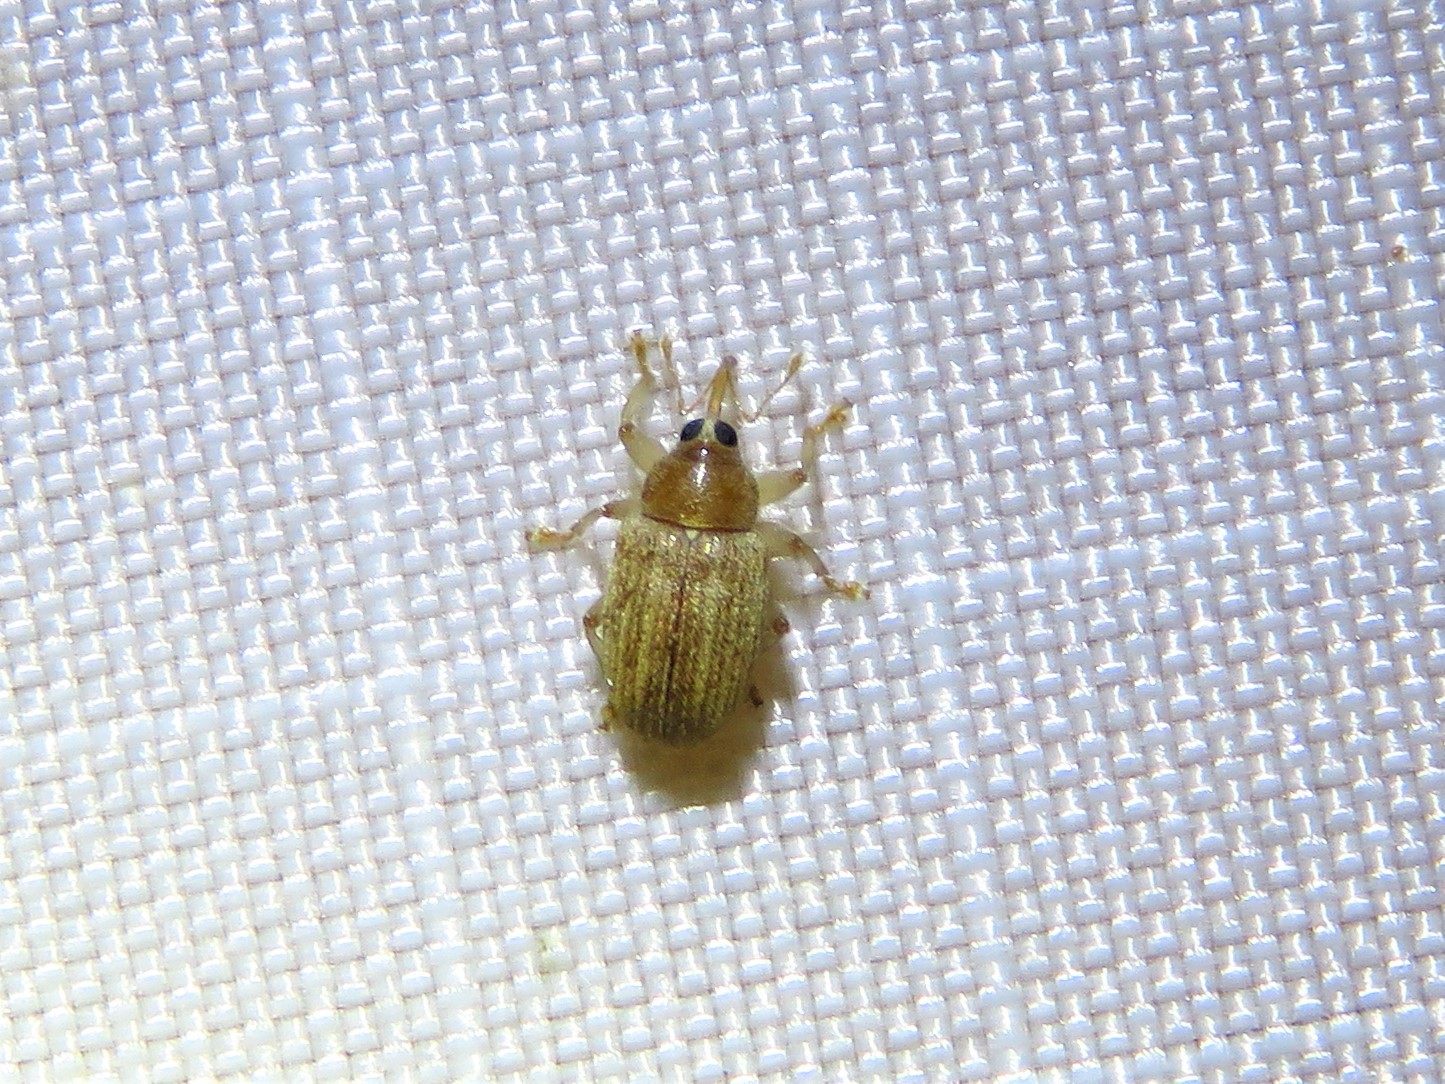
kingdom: Animalia
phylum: Arthropoda
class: Insecta
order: Coleoptera
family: Curculionidae
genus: Lignyodes
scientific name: Lignyodes helvolus
